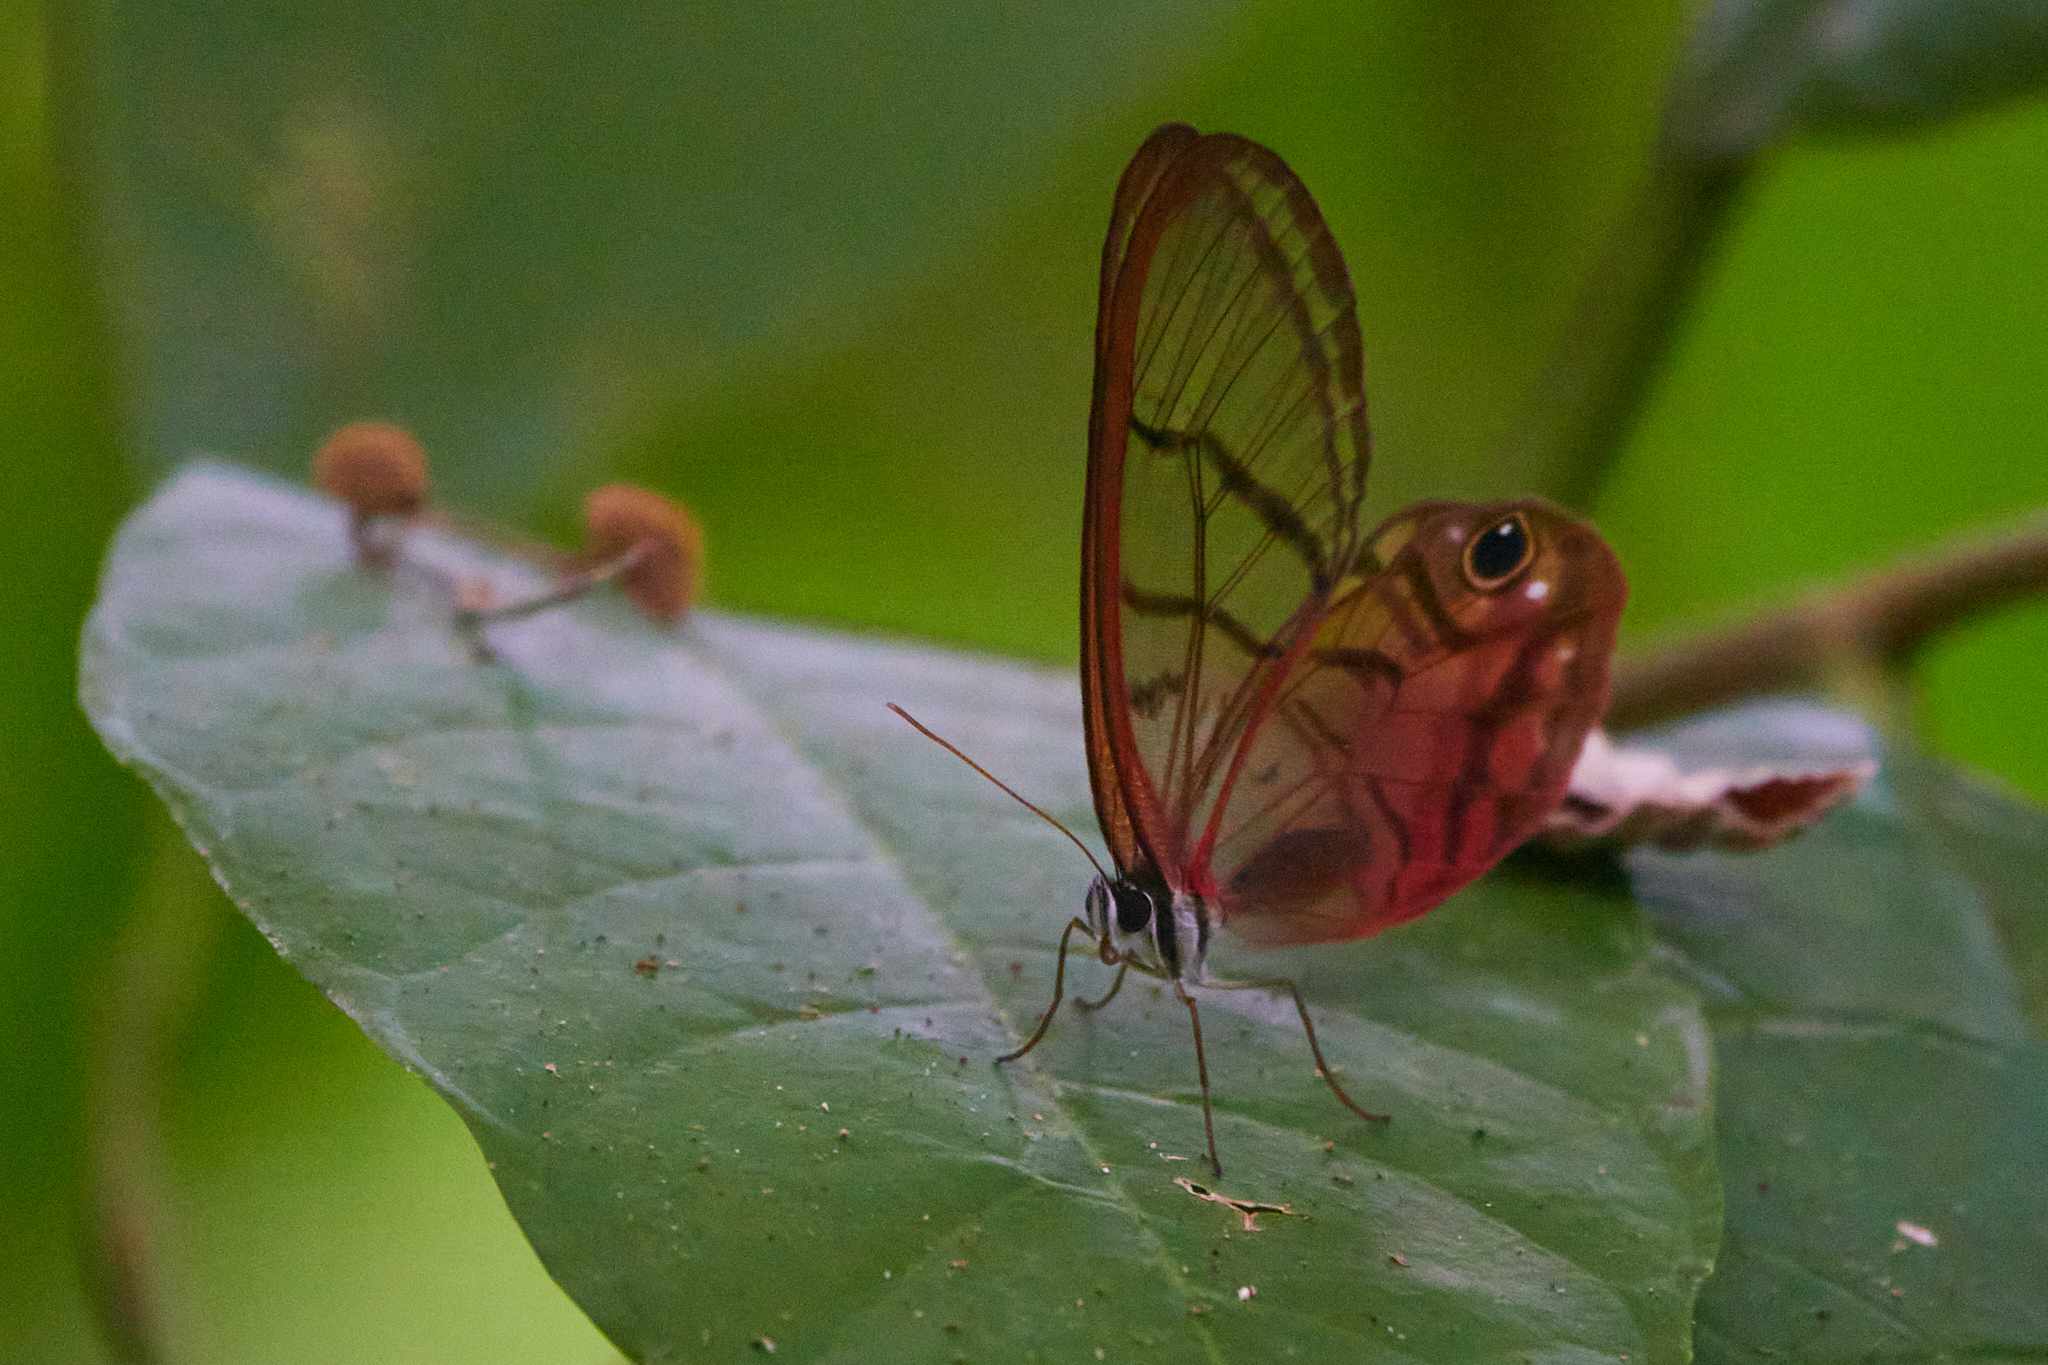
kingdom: Animalia
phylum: Arthropoda
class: Insecta
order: Lepidoptera
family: Nymphalidae
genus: Cithaerias
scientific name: Cithaerias pireta
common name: Rusted clearwing-satyr
